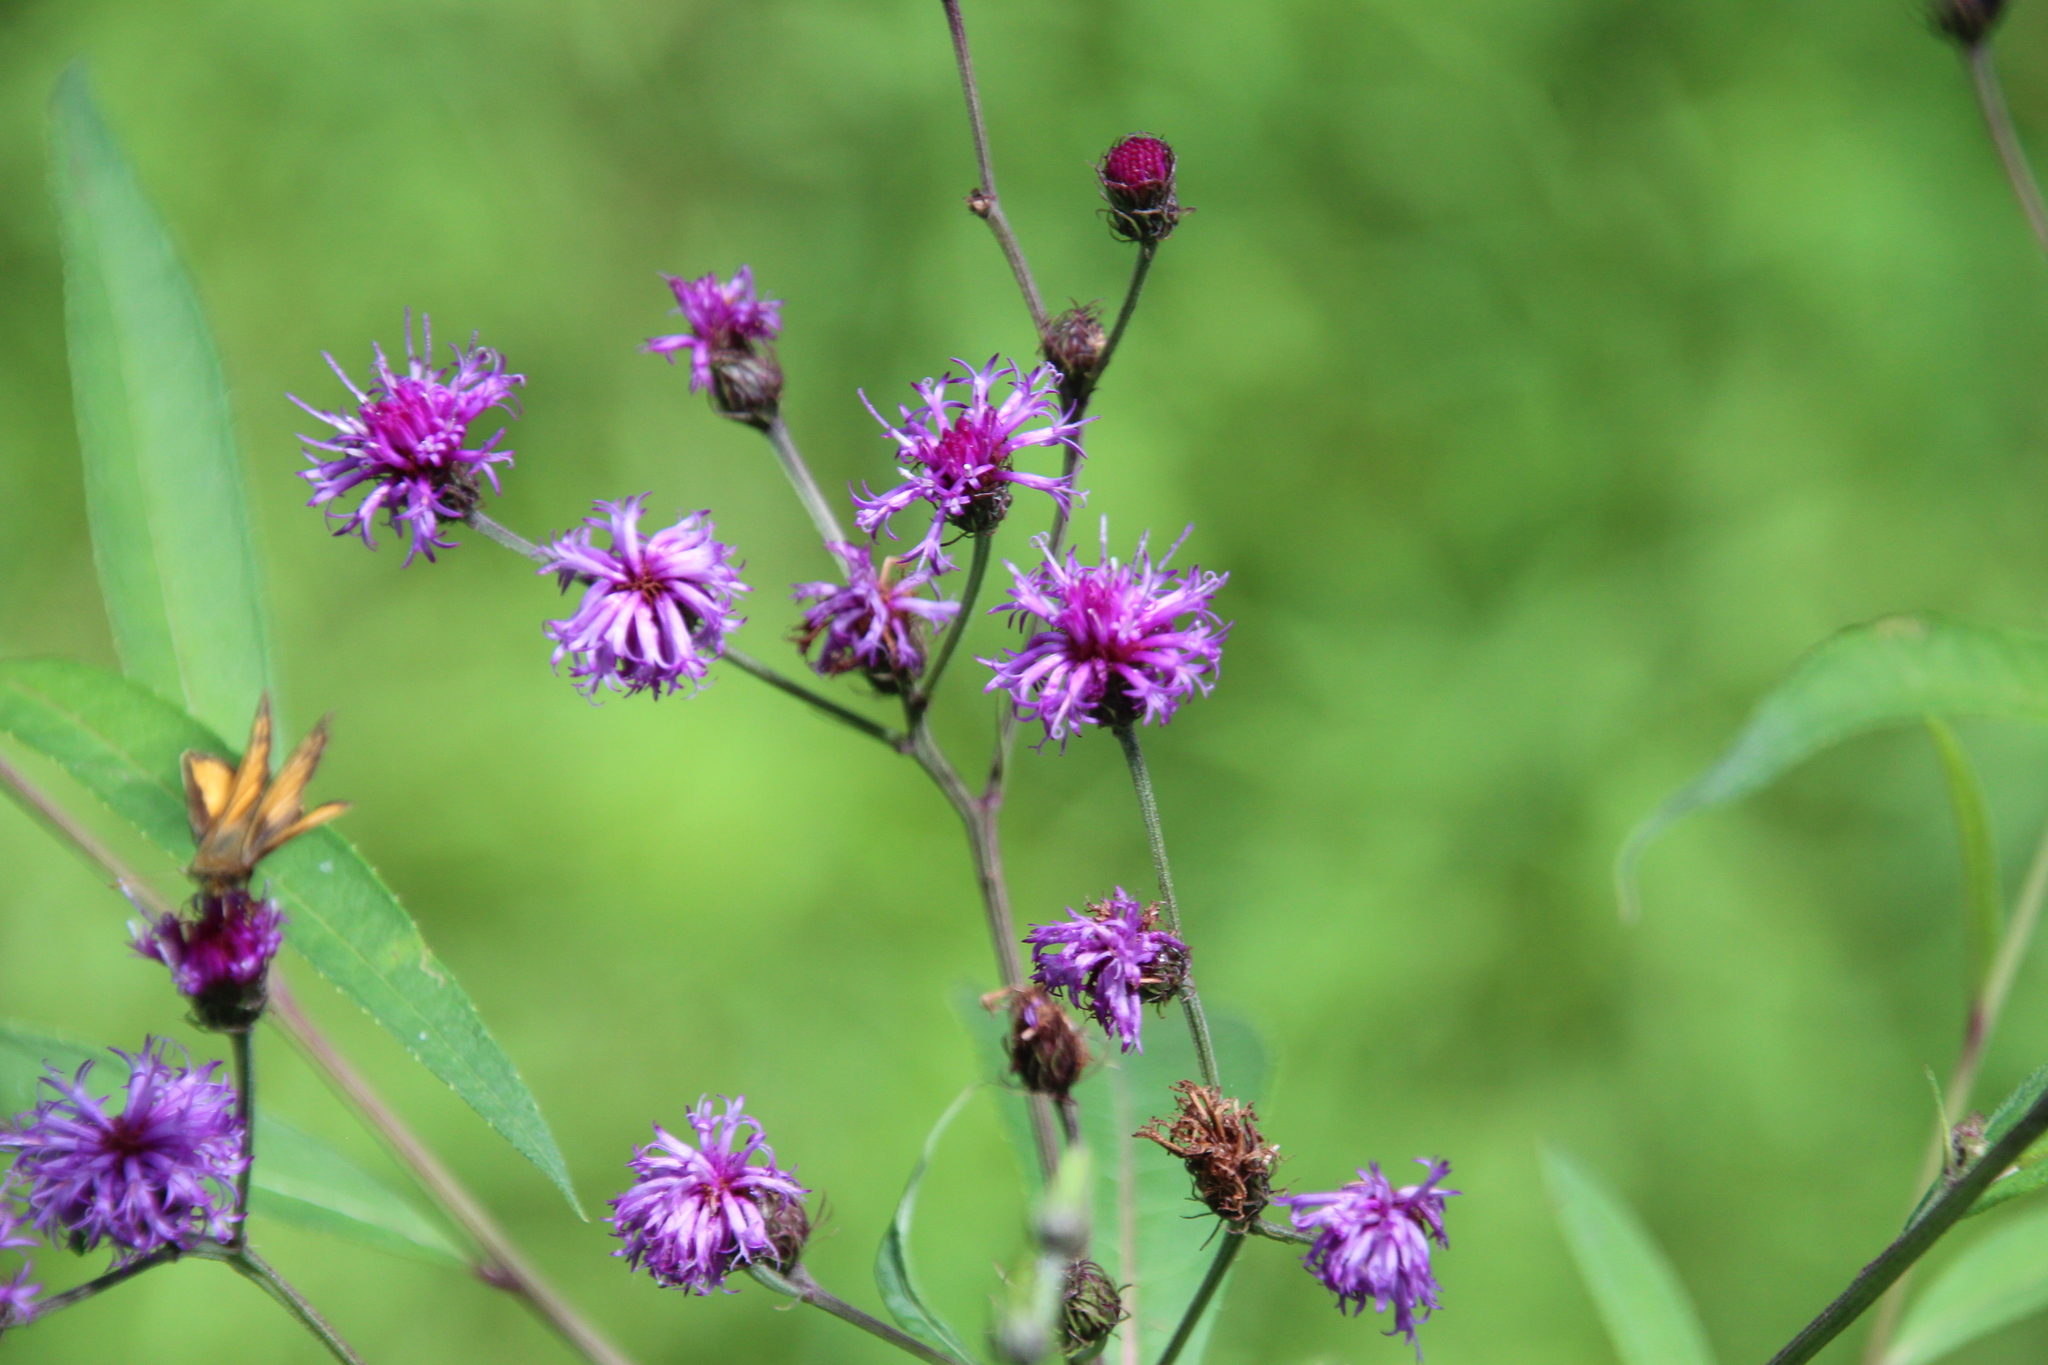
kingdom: Plantae
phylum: Tracheophyta
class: Magnoliopsida
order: Asterales
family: Asteraceae
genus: Vernonia
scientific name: Vernonia noveboracensis
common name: New york ironweed
